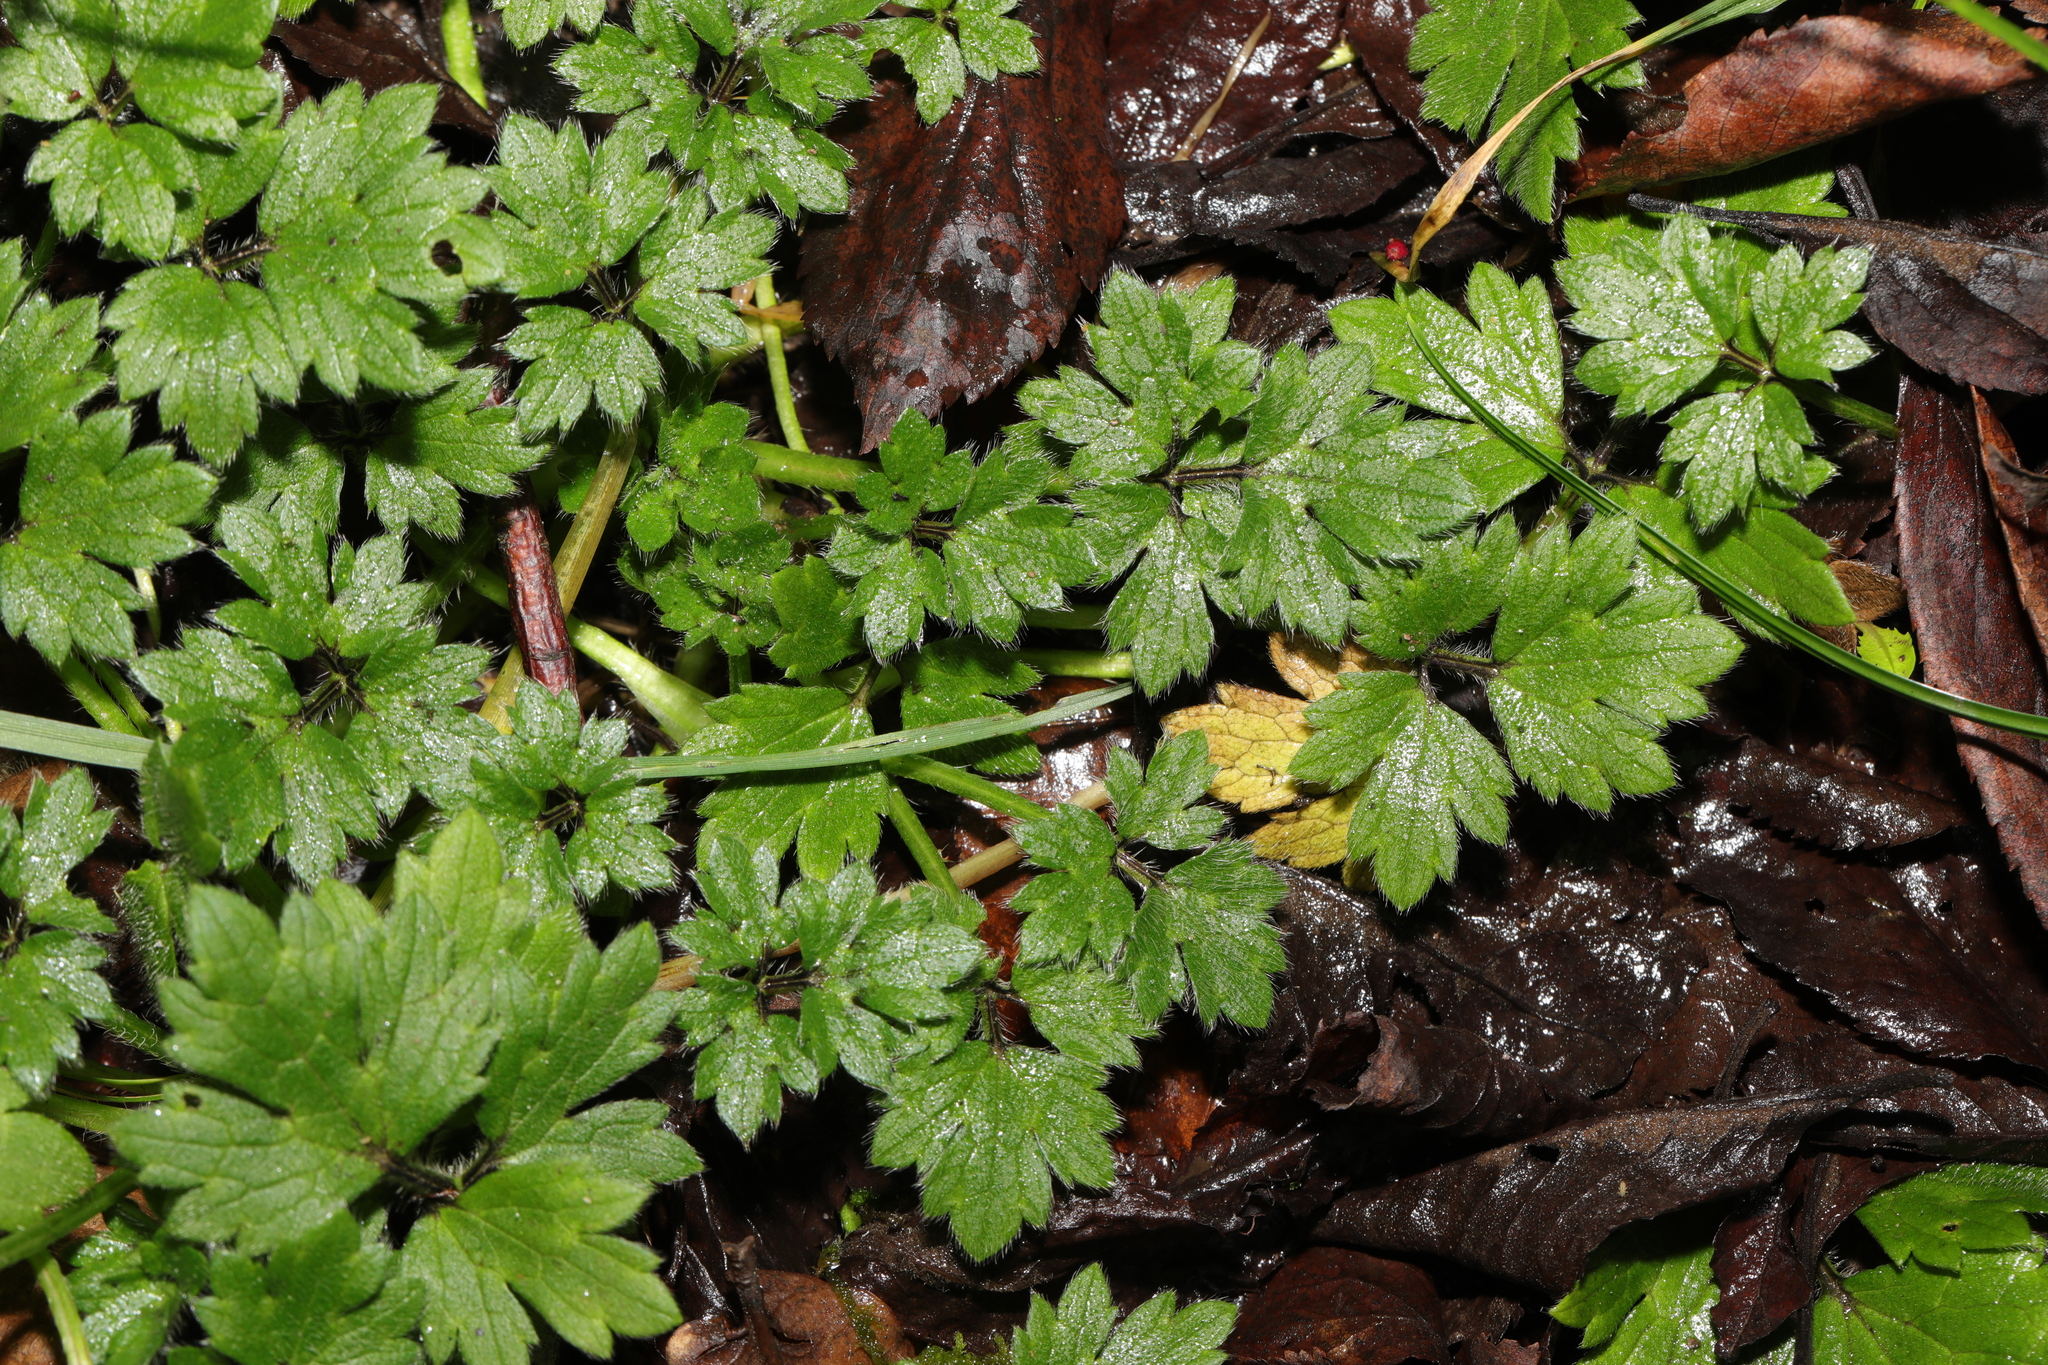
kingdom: Plantae
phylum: Tracheophyta
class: Magnoliopsida
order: Ranunculales
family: Ranunculaceae
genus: Ranunculus
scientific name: Ranunculus repens
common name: Creeping buttercup
